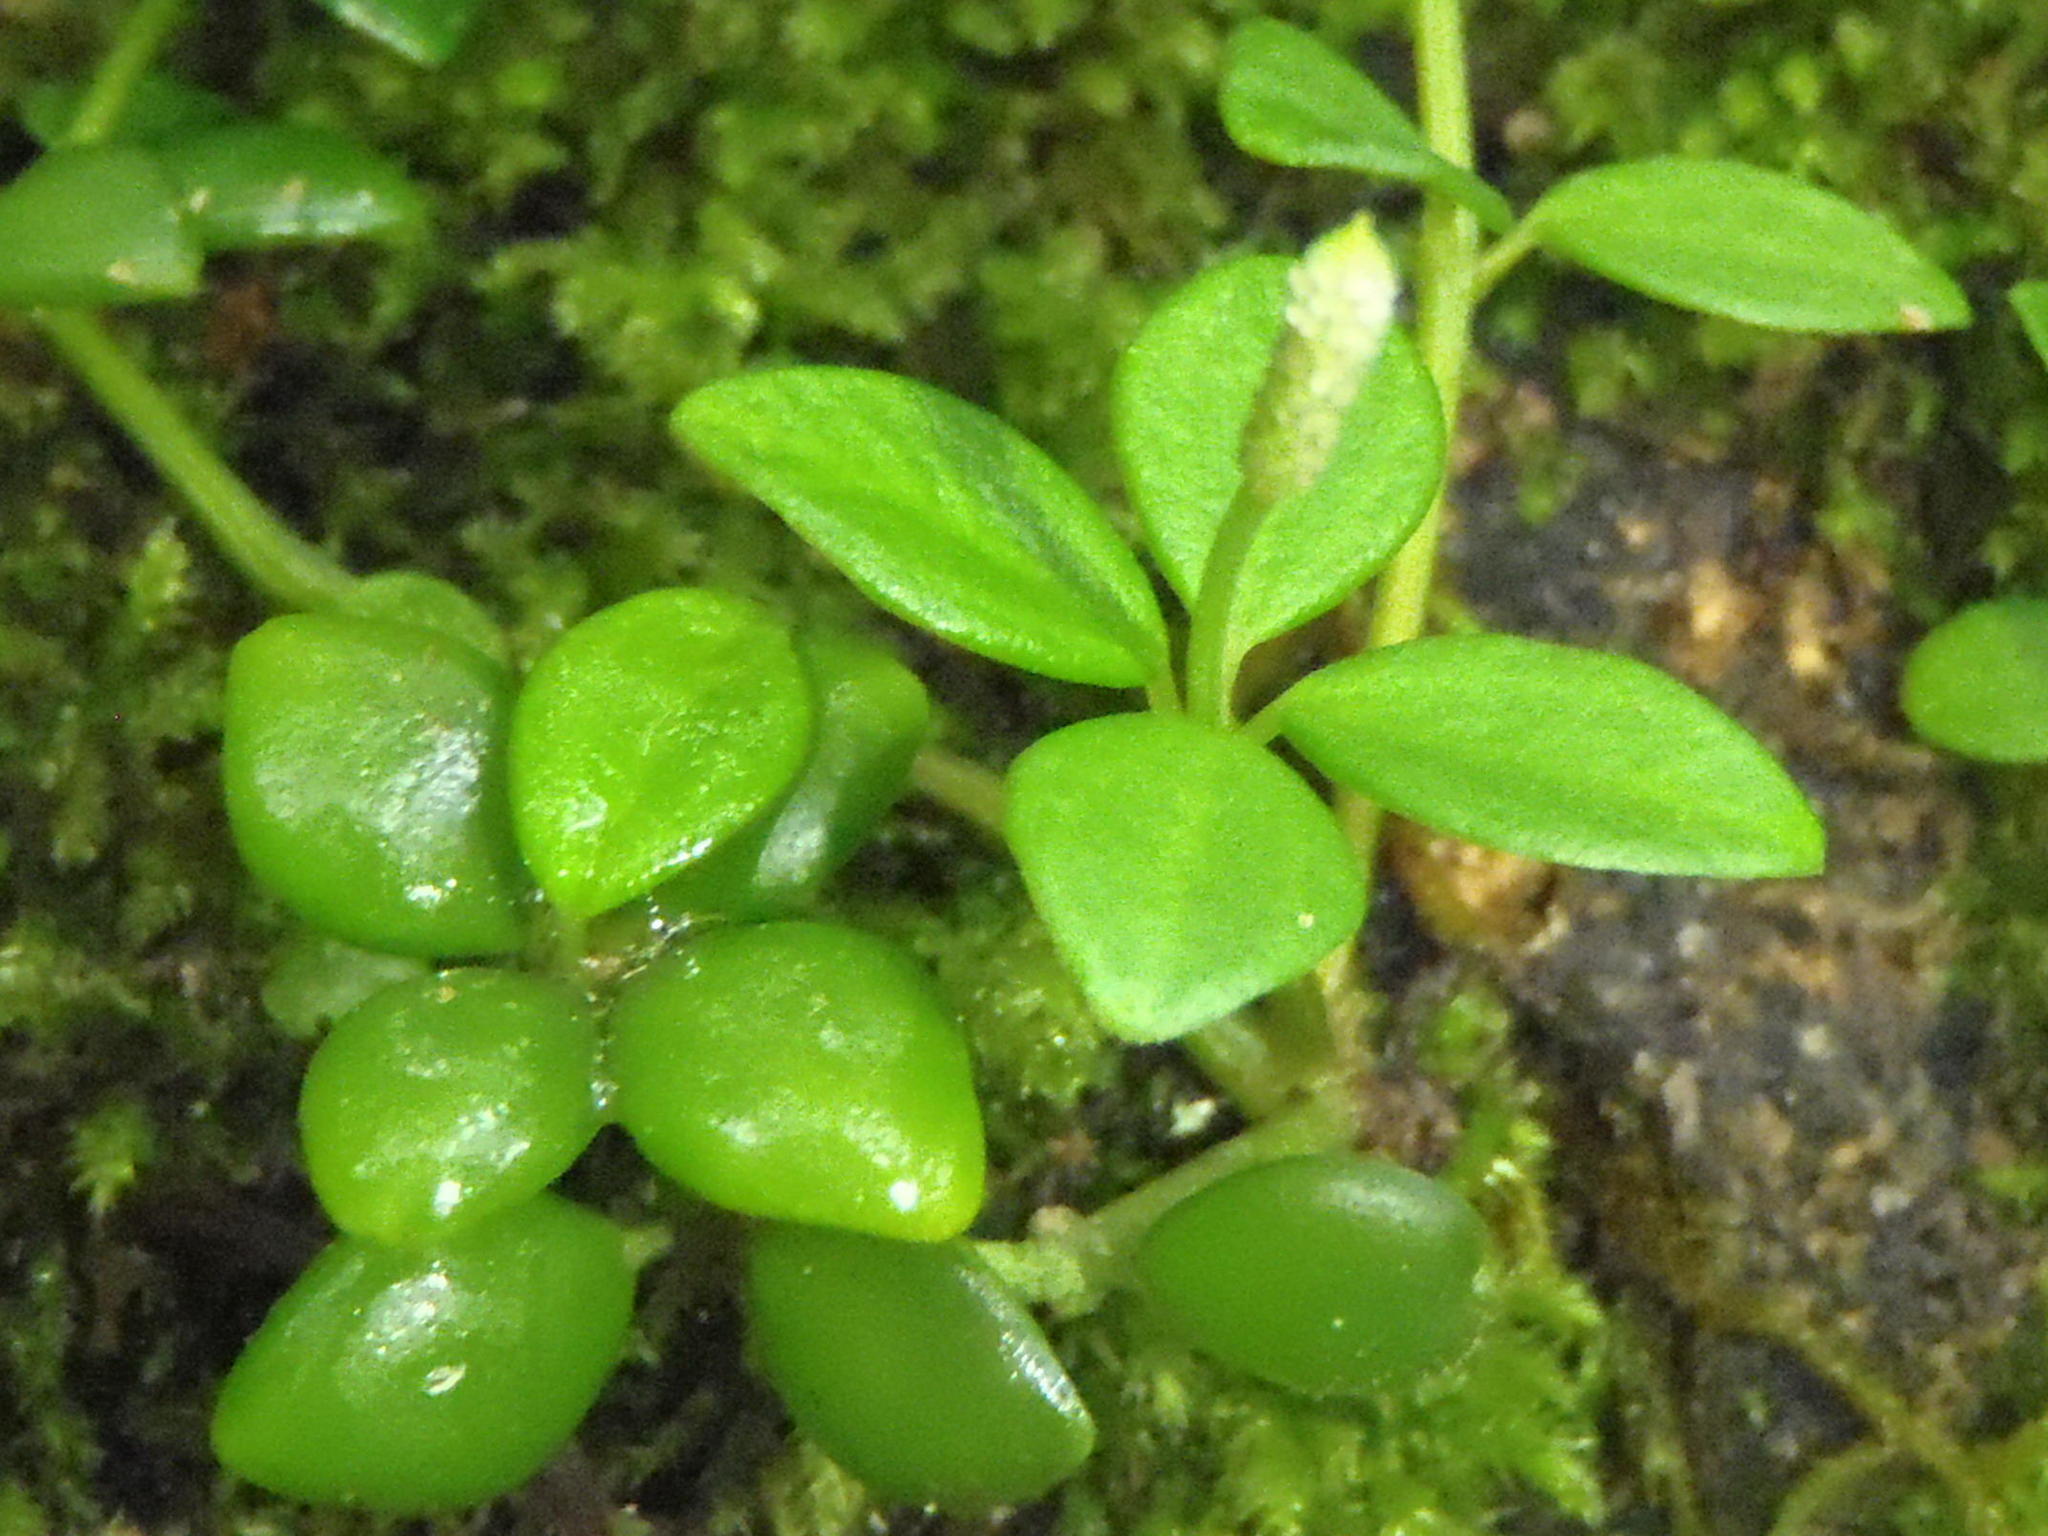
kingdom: Plantae
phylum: Tracheophyta
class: Magnoliopsida
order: Piperales
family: Piperaceae
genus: Peperomia
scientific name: Peperomia tetraphylla
